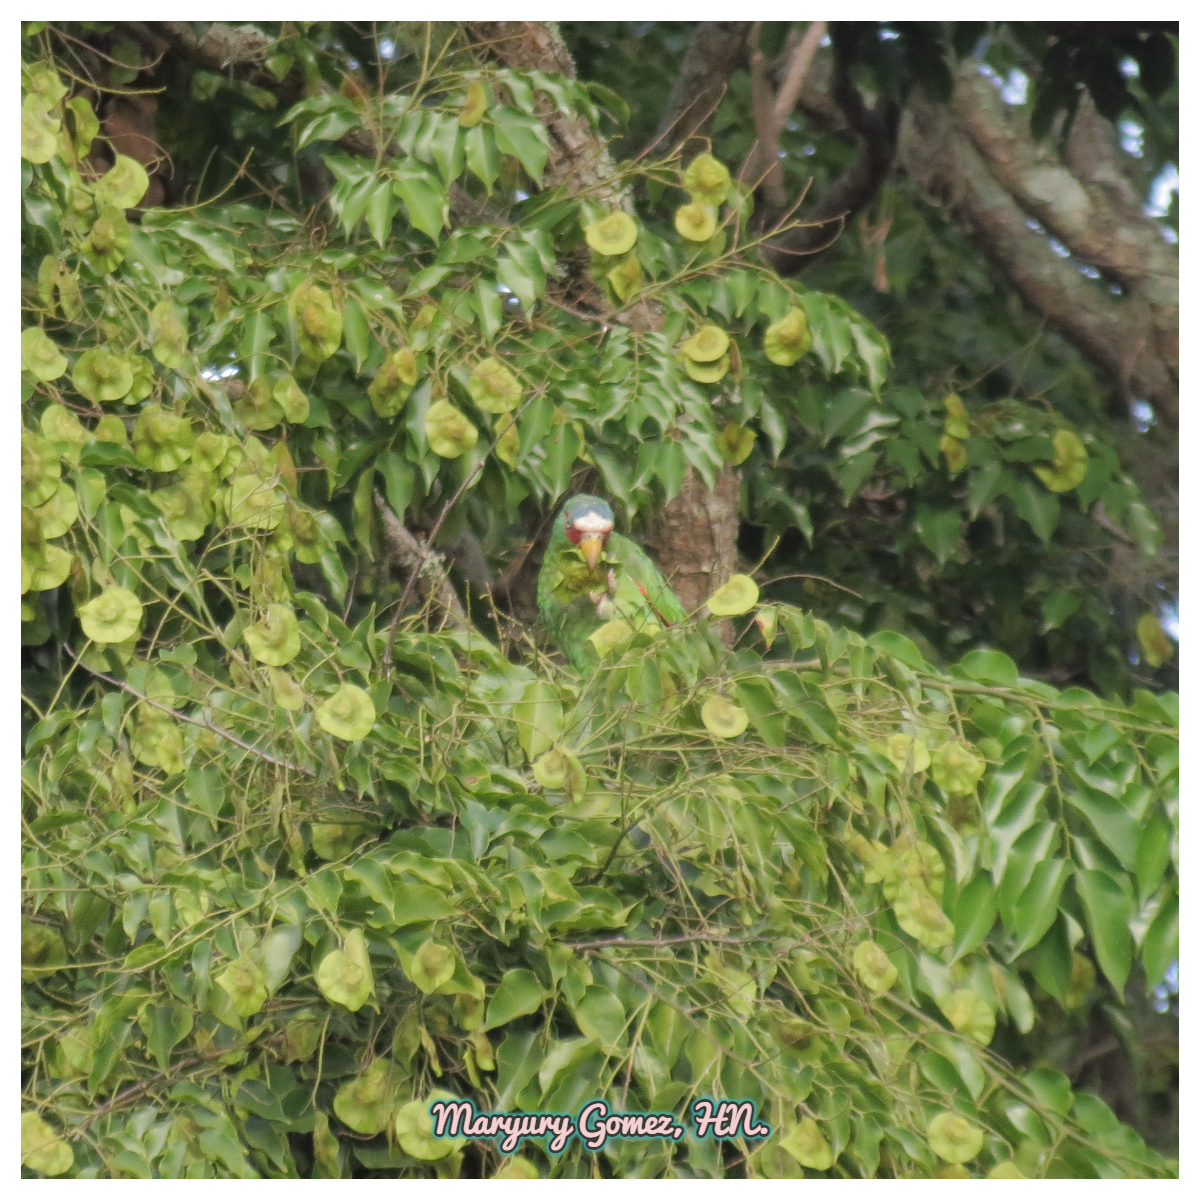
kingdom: Animalia
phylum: Chordata
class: Aves
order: Psittaciformes
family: Psittacidae
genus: Amazona
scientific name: Amazona albifrons
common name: White-fronted amazon
